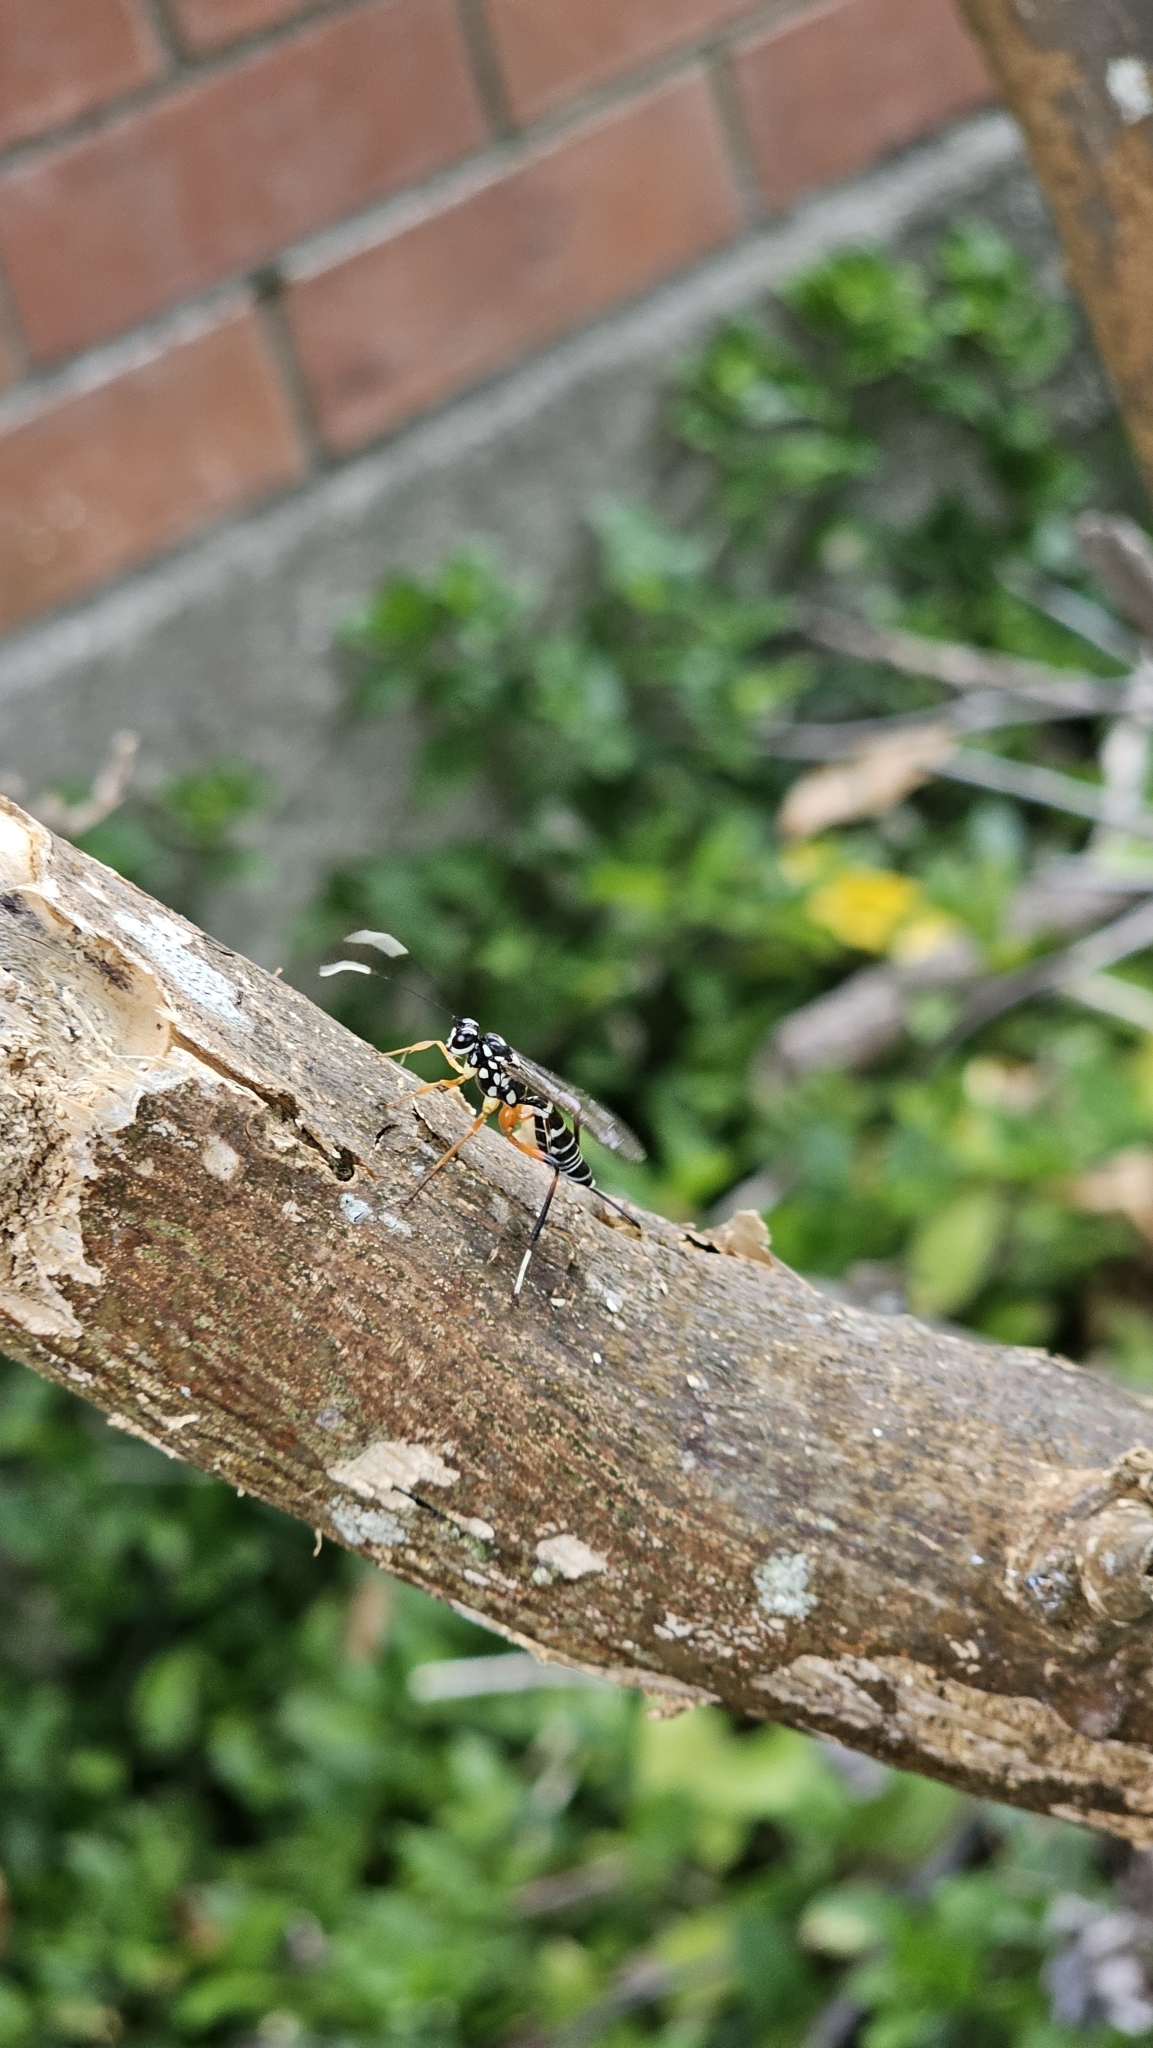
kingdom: Animalia
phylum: Arthropoda
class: Insecta
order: Hymenoptera
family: Ichneumonidae
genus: Xanthocryptus
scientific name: Xanthocryptus novozealandicus
